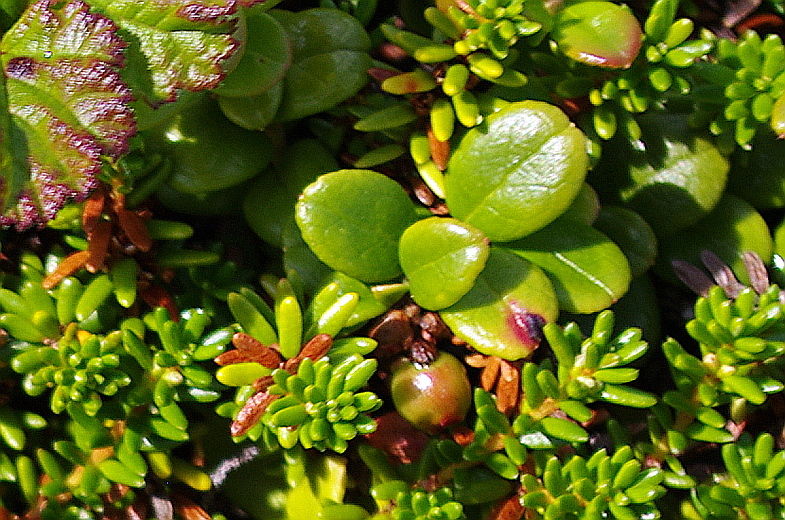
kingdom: Plantae
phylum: Tracheophyta
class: Magnoliopsida
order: Ericales
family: Ericaceae
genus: Vaccinium
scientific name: Vaccinium vitis-idaea
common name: Cowberry
